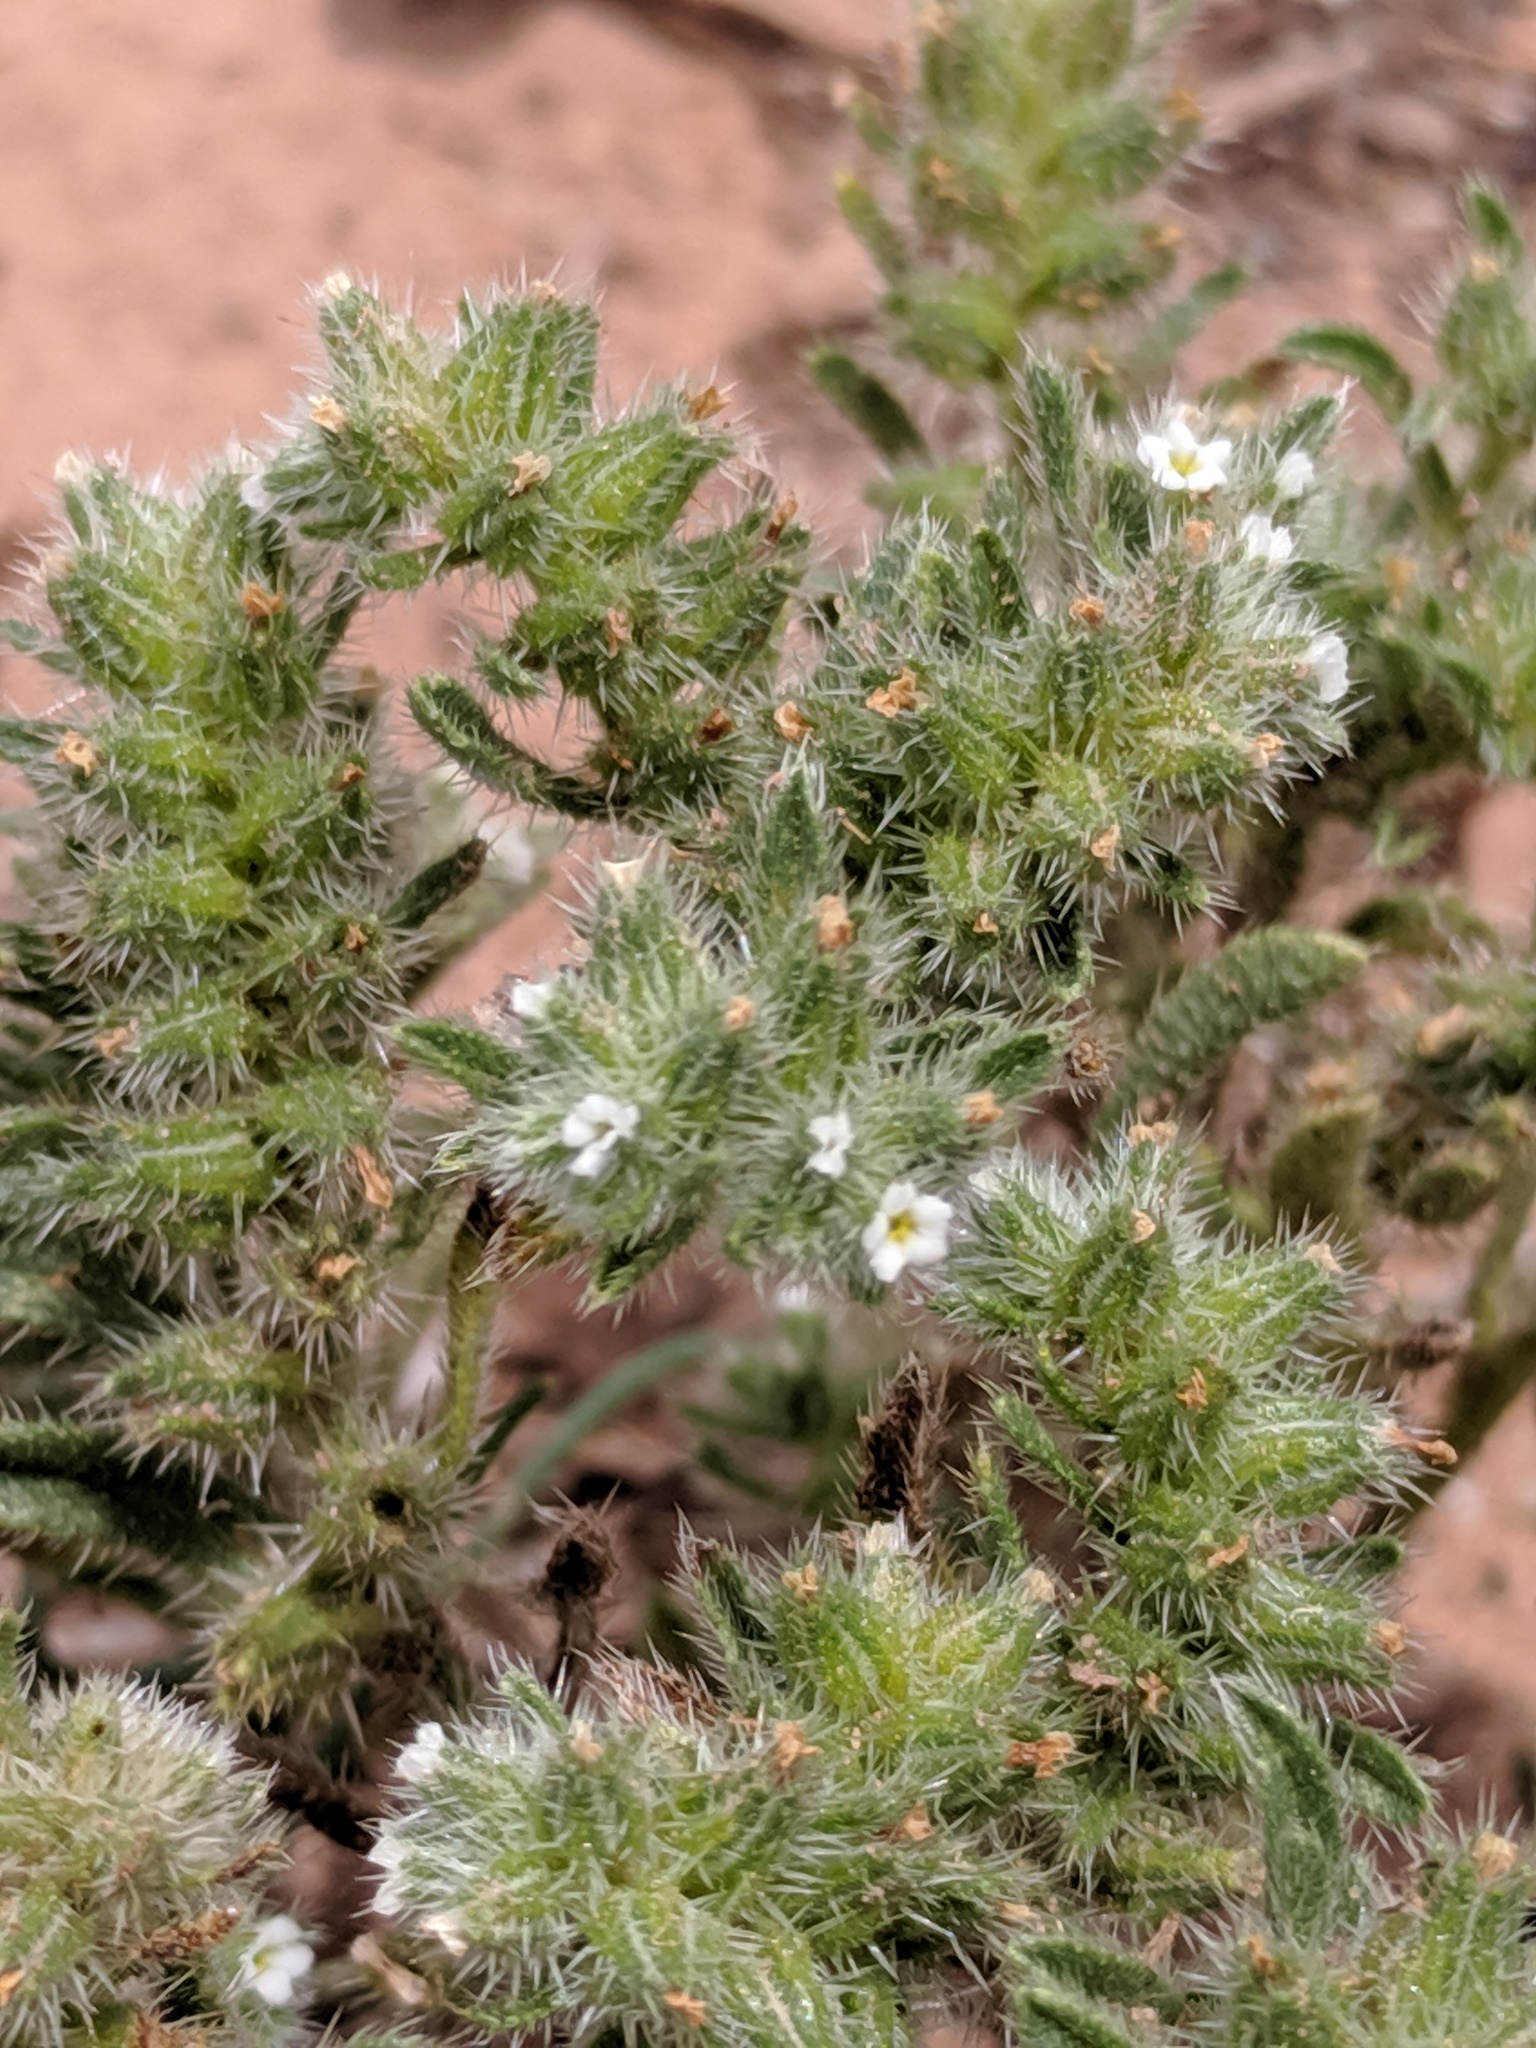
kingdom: Plantae
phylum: Tracheophyta
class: Magnoliopsida
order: Boraginales
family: Boraginaceae
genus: Cryptantha
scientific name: Cryptantha minima
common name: Little cat's-eye
